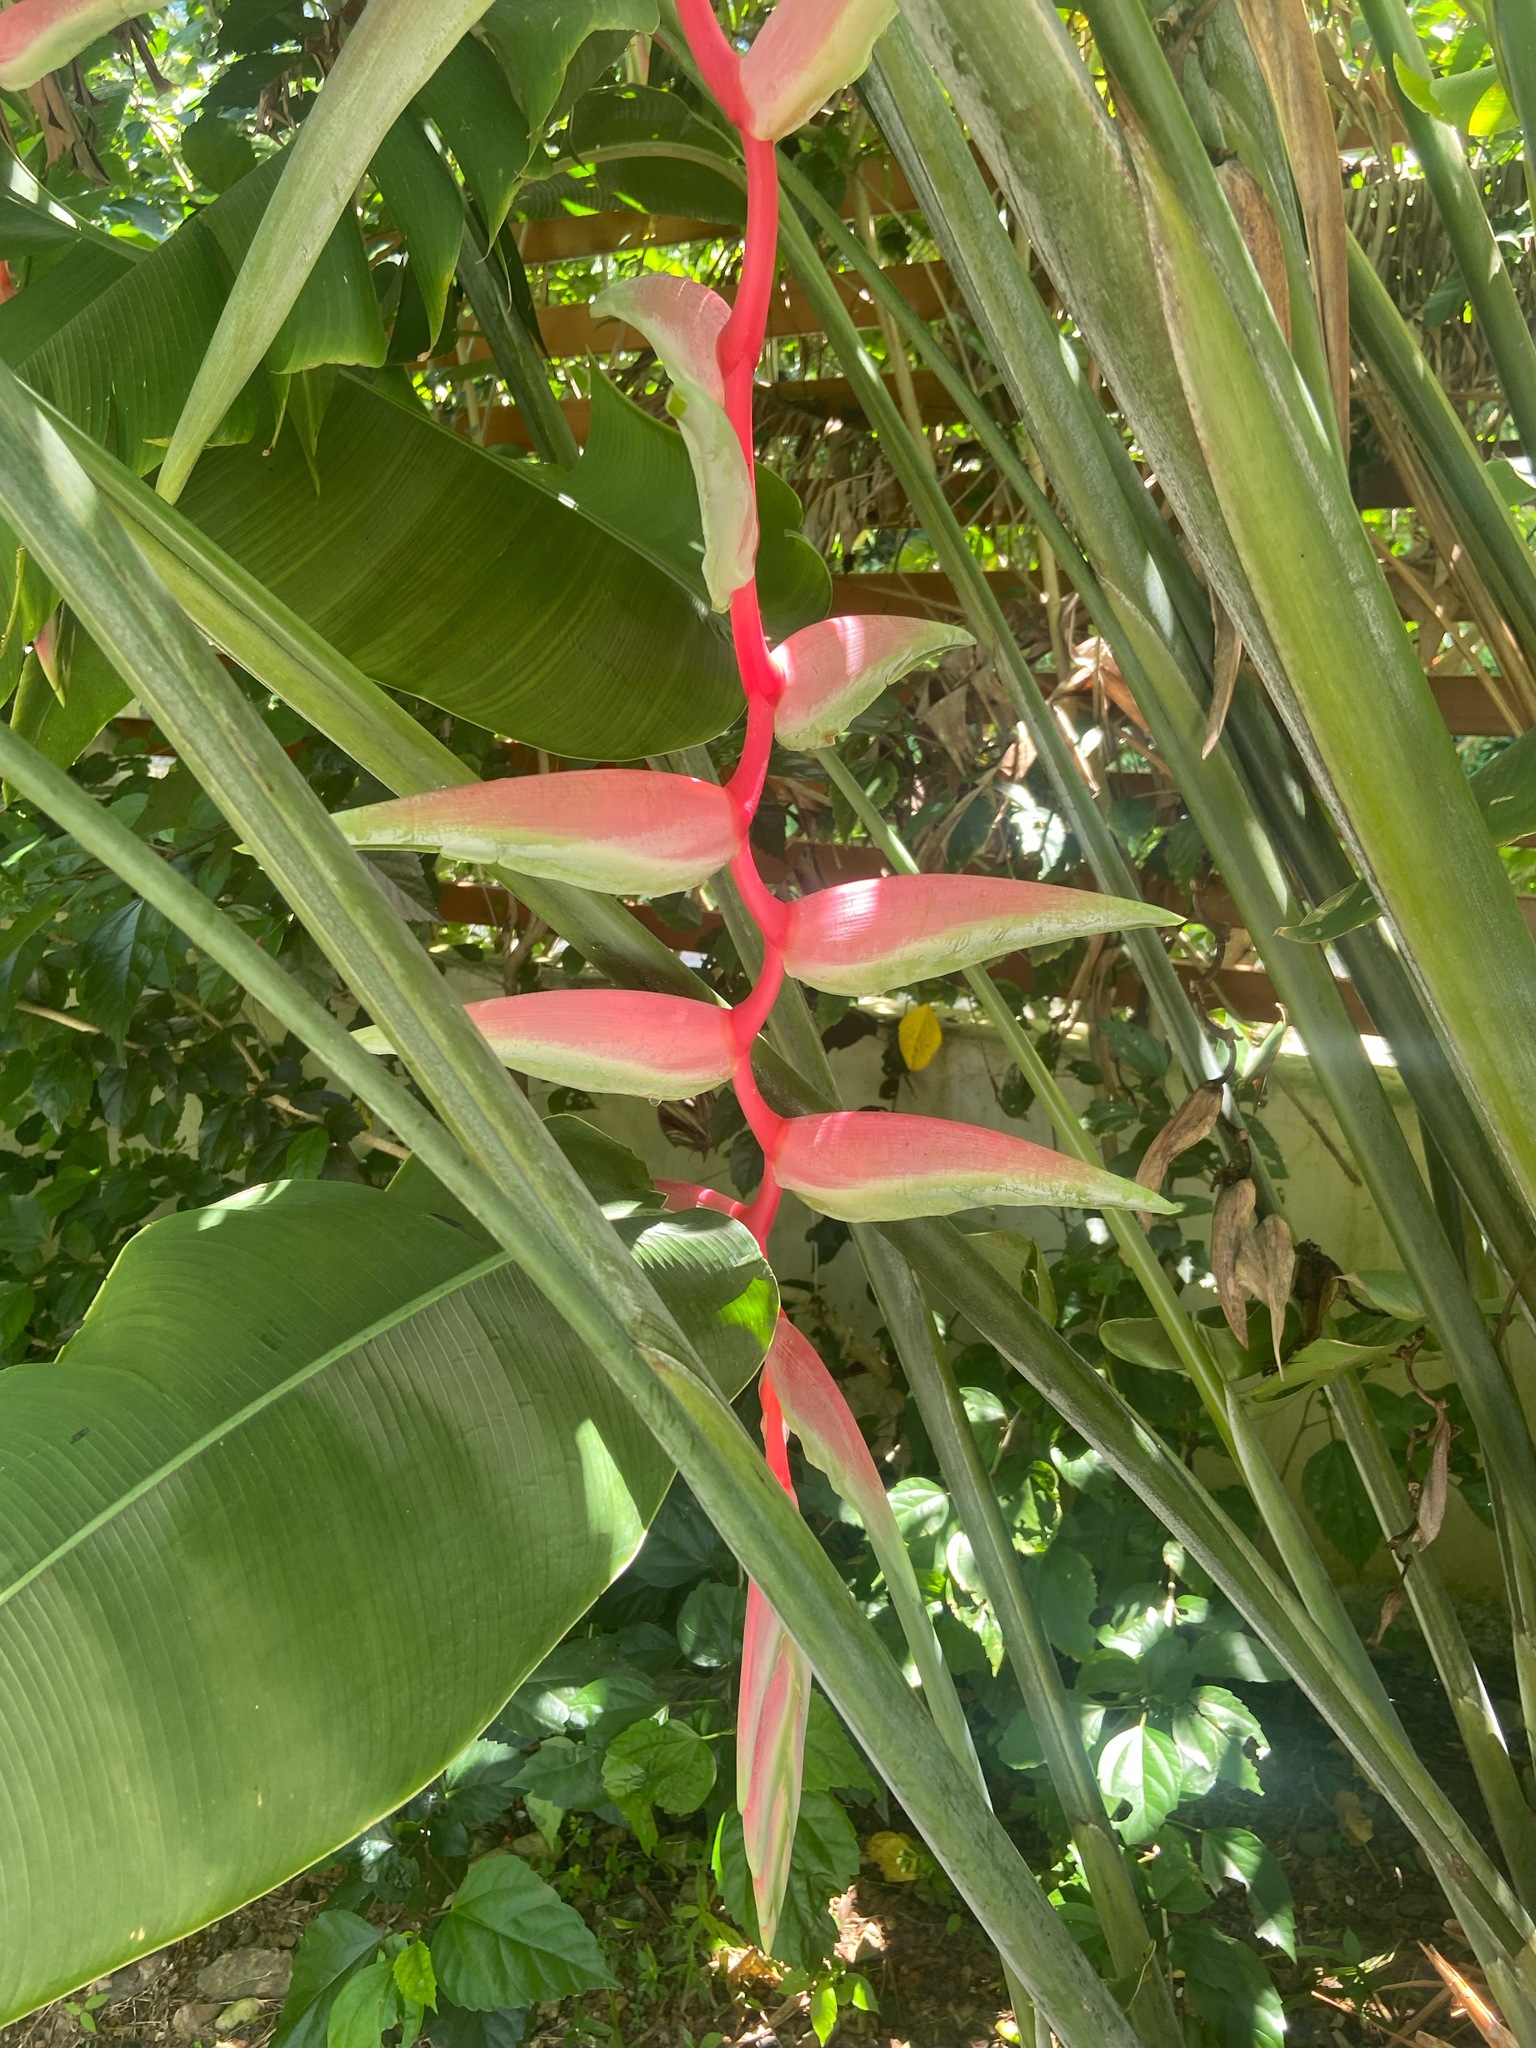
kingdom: Plantae
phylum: Tracheophyta
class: Liliopsida
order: Zingiberales
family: Heliconiaceae
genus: Heliconia
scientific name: Heliconia chartacea
